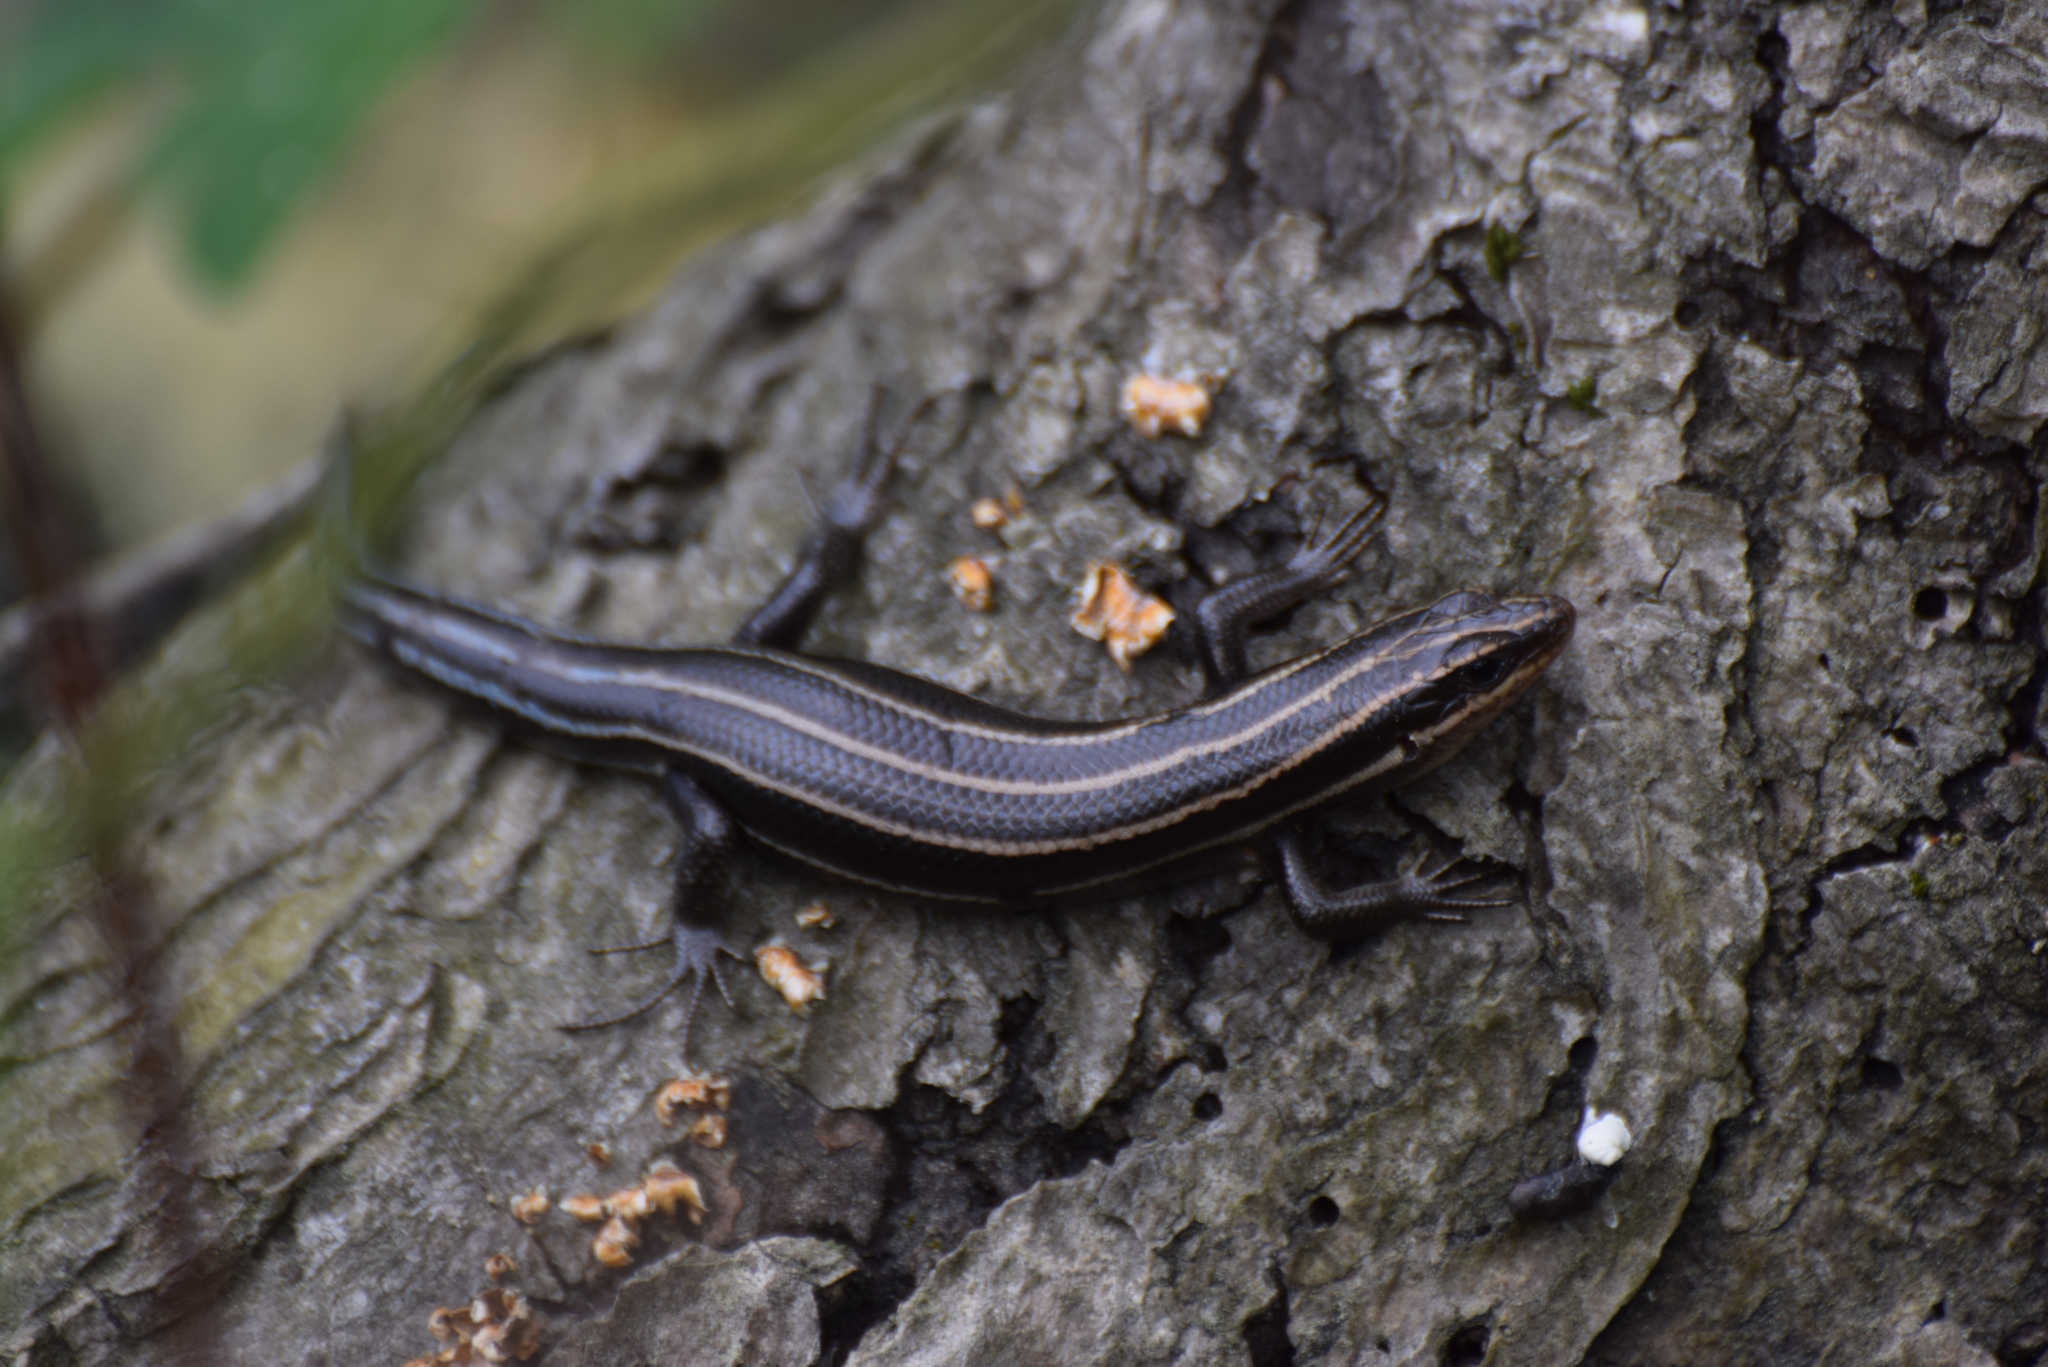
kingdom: Animalia
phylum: Chordata
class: Squamata
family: Scincidae
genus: Plestiodon
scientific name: Plestiodon fasciatus
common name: Five-lined skink
